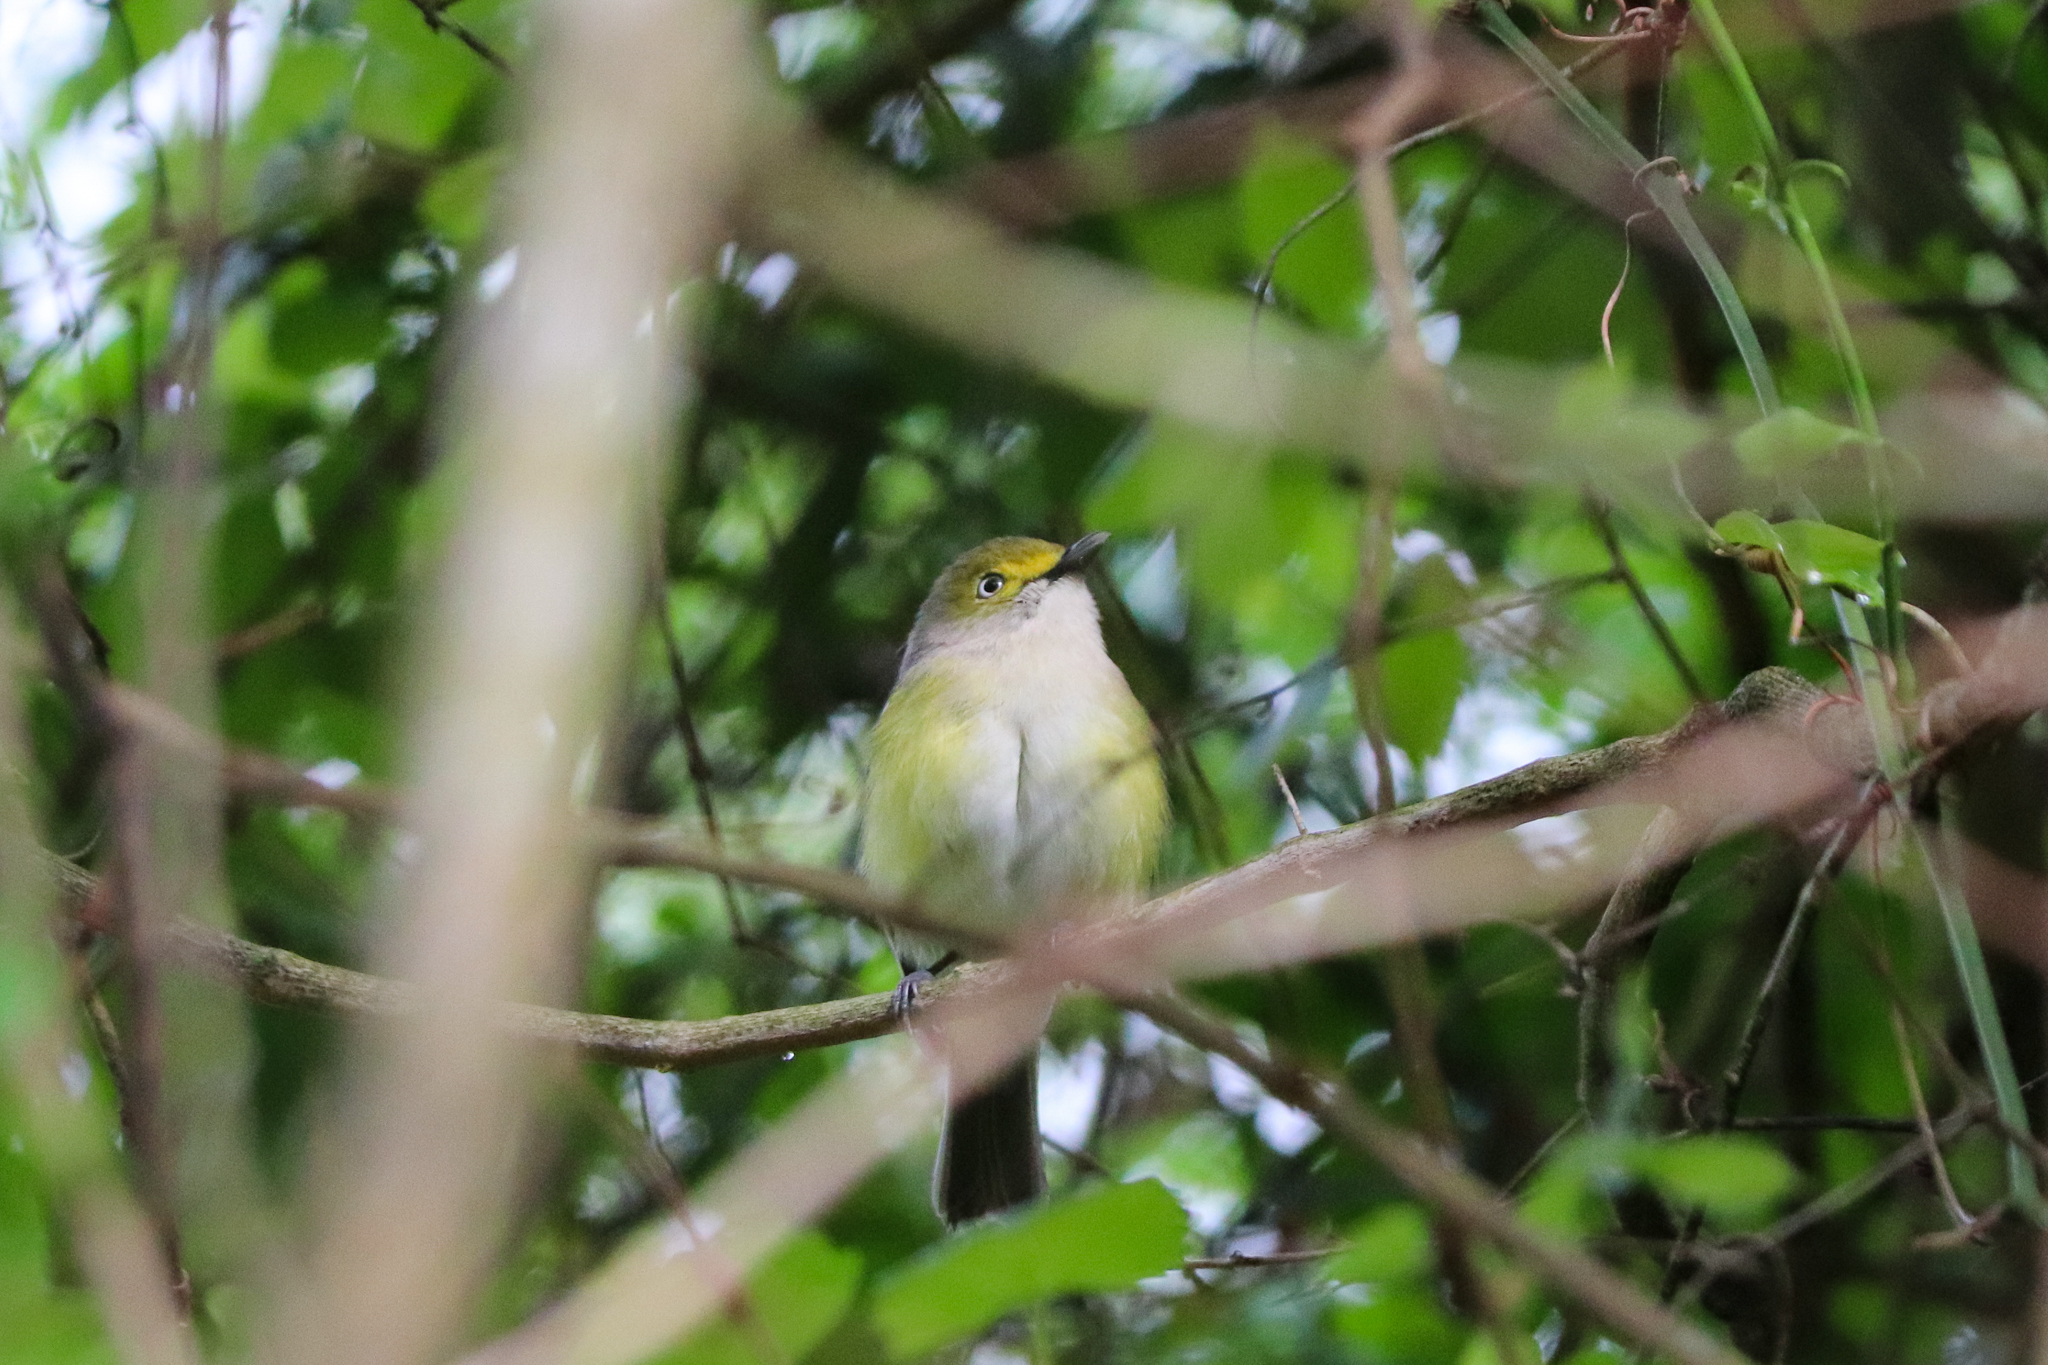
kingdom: Animalia
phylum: Chordata
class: Aves
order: Passeriformes
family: Vireonidae
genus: Vireo
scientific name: Vireo griseus
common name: White-eyed vireo
